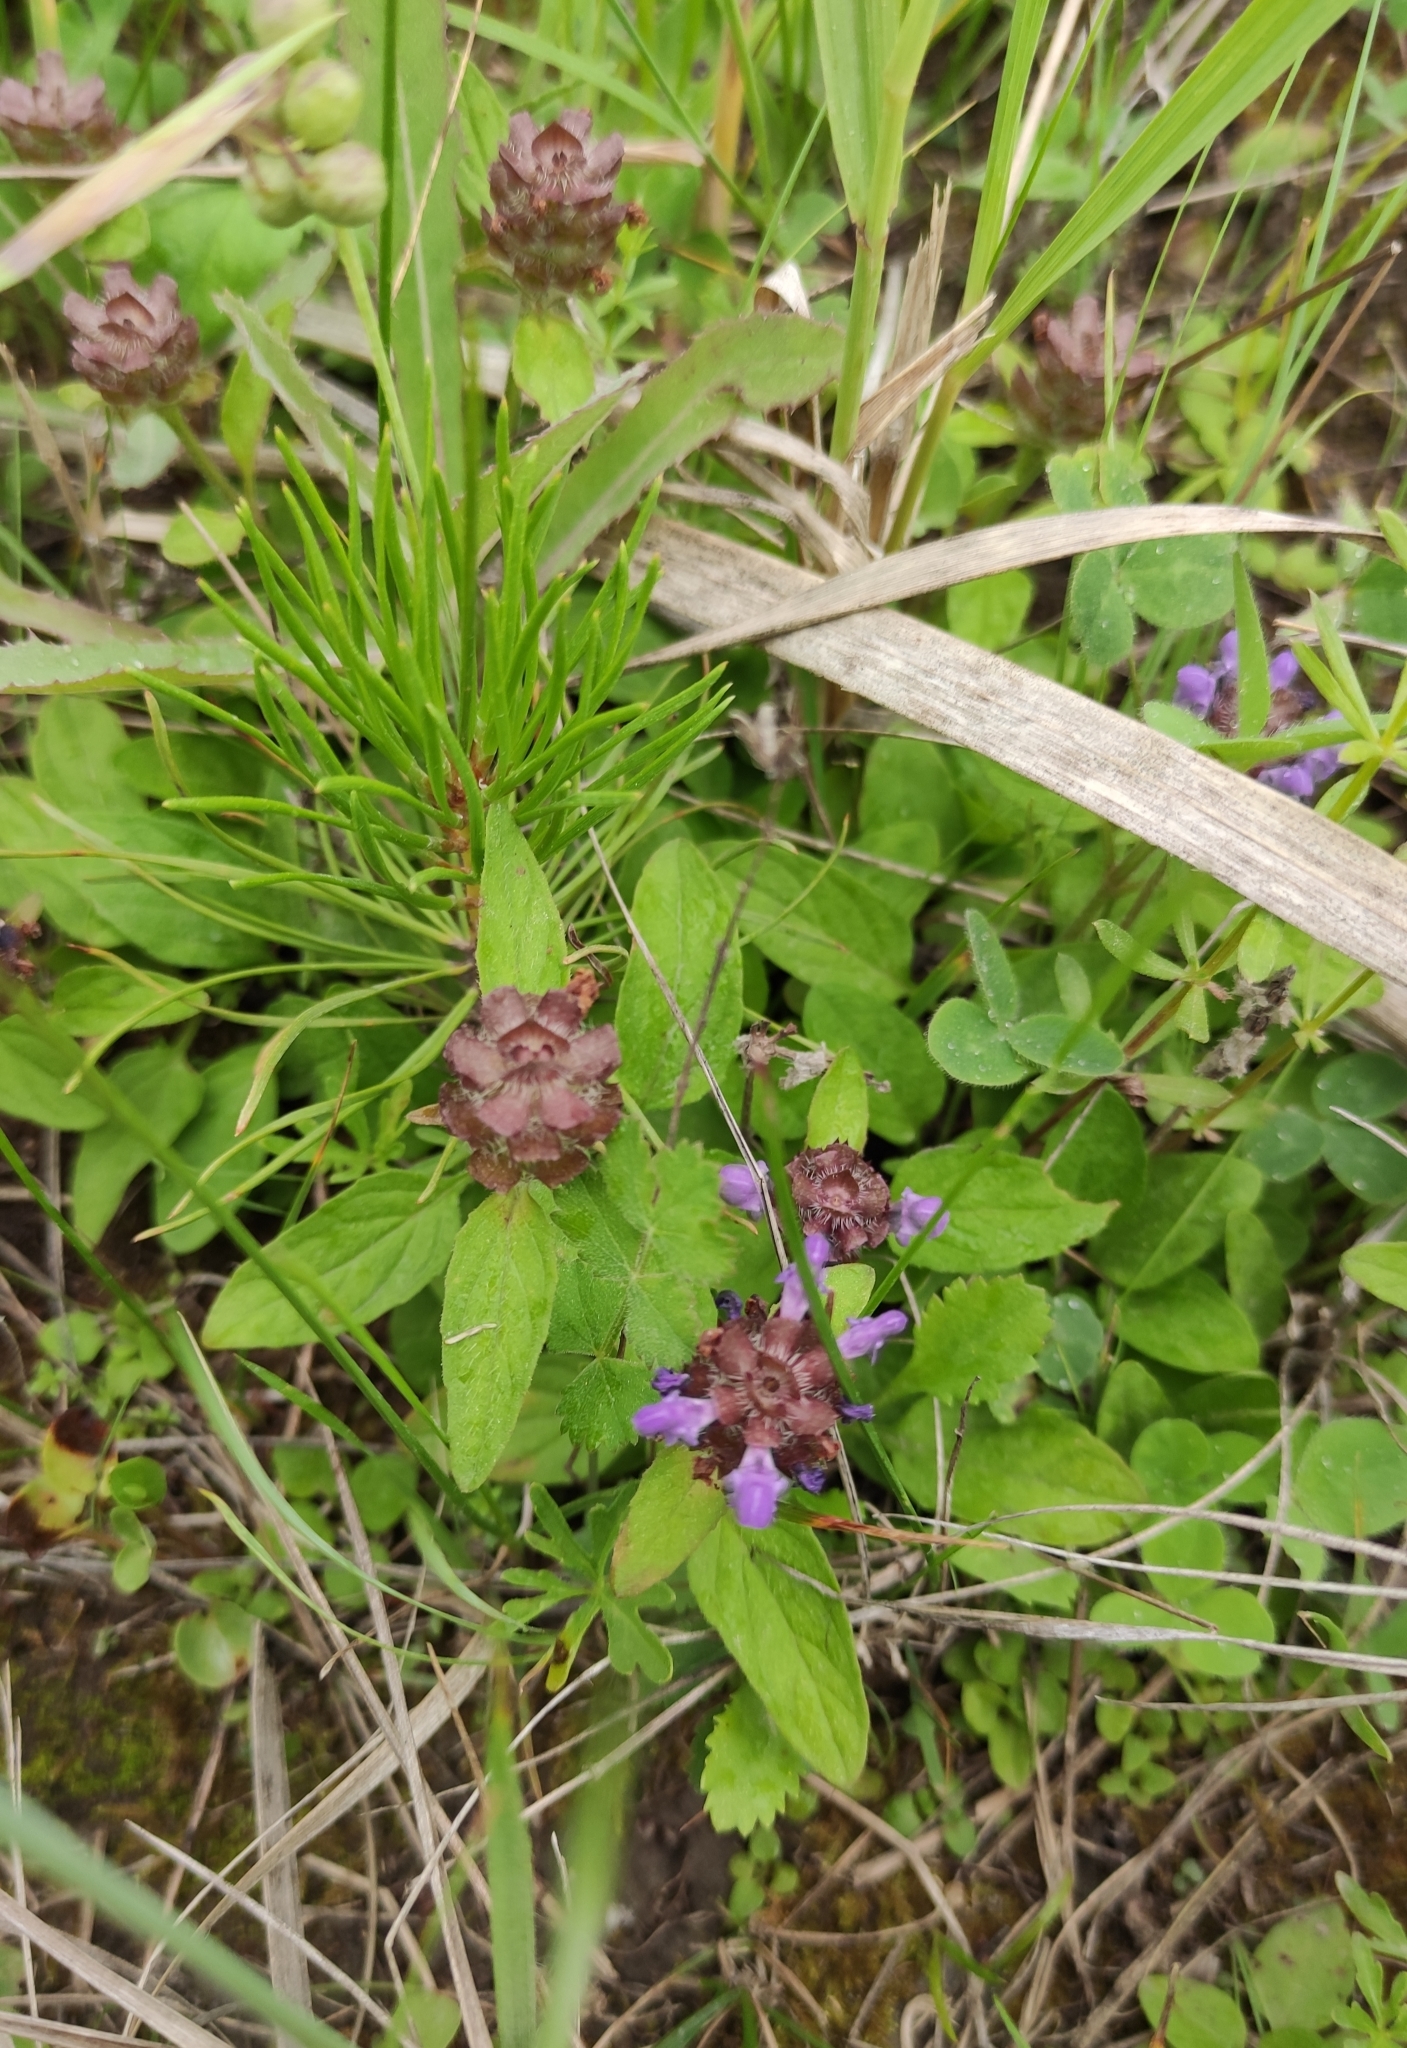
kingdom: Plantae
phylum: Tracheophyta
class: Magnoliopsida
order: Lamiales
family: Lamiaceae
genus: Prunella
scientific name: Prunella vulgaris
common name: Heal-all
